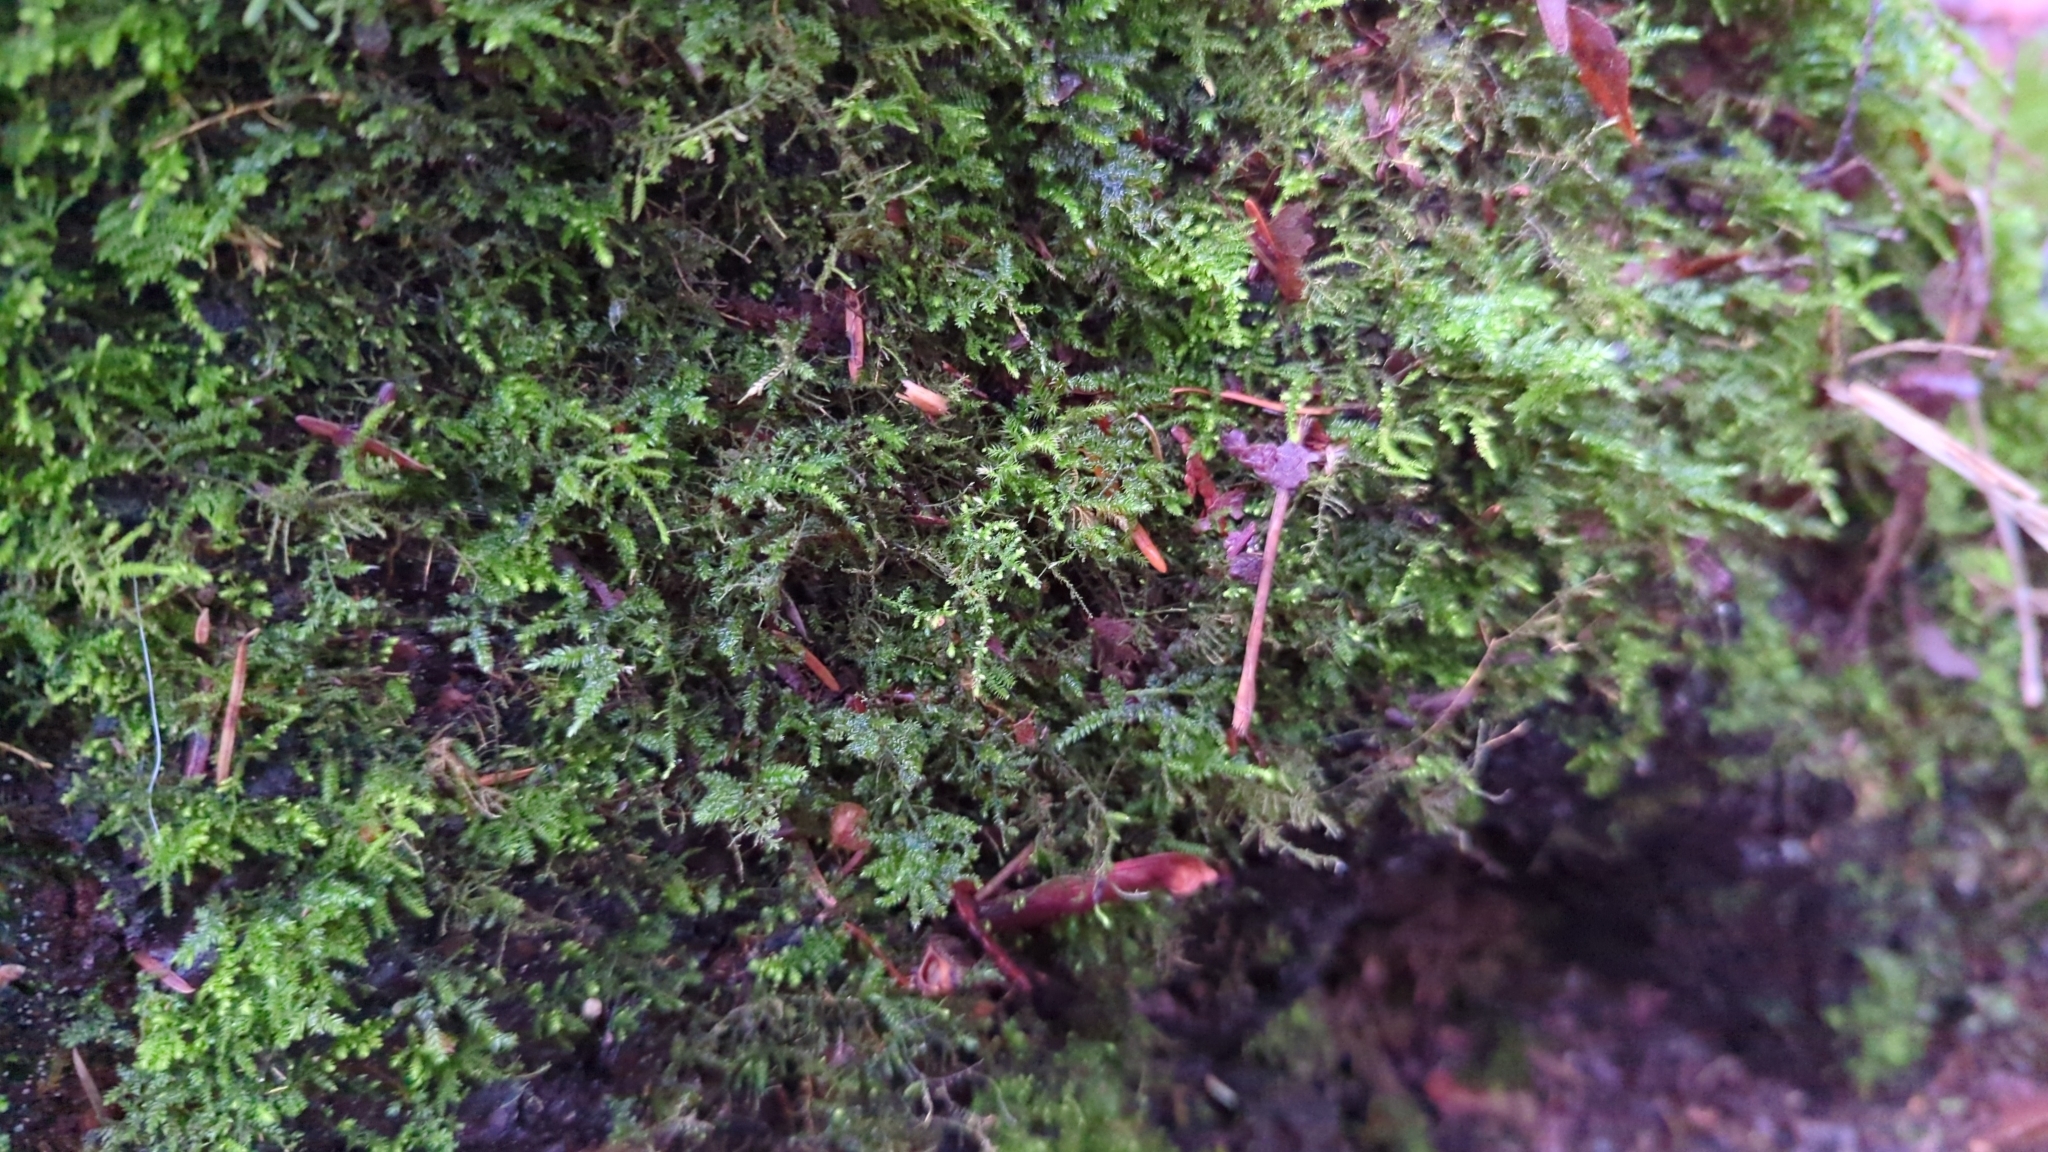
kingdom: Plantae
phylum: Bryophyta
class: Bryopsida
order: Hypnales
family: Brachytheciaceae
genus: Claopodium
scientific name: Claopodium crispifolium
